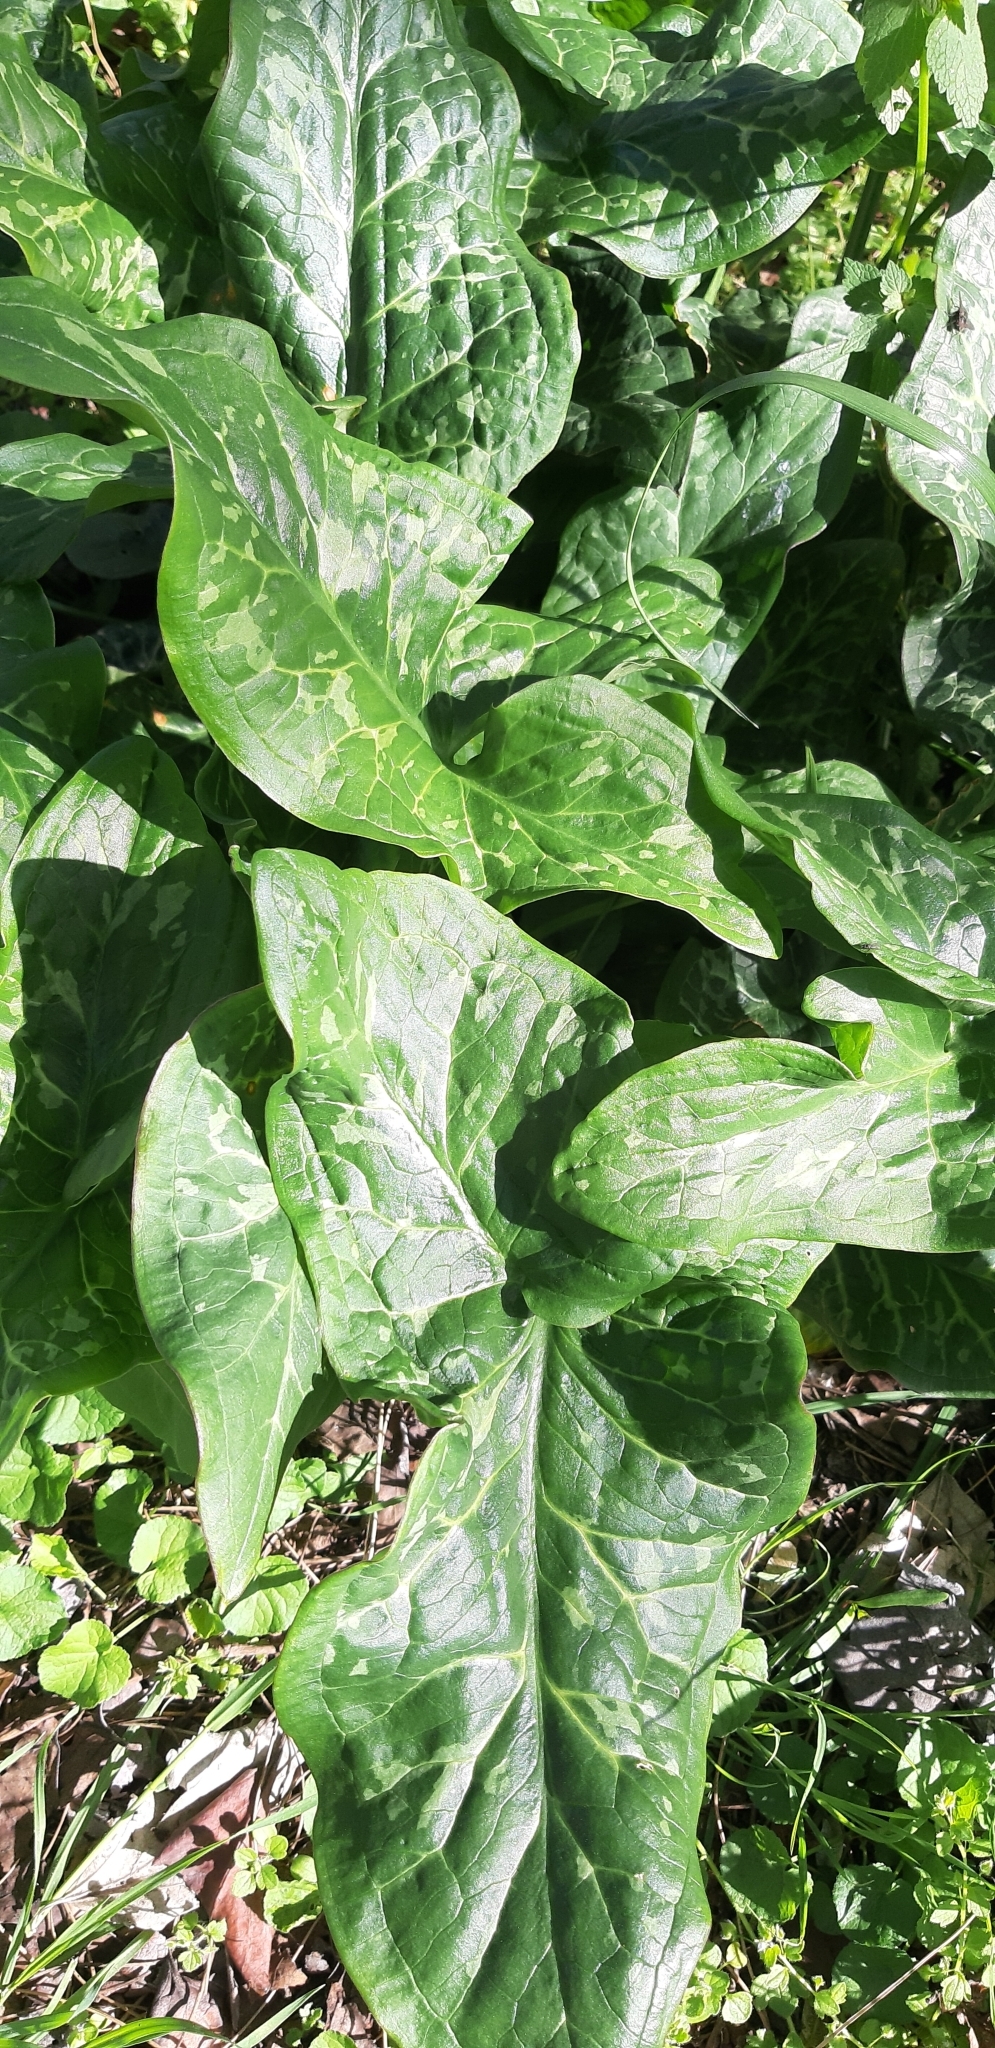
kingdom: Plantae
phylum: Tracheophyta
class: Liliopsida
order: Alismatales
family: Araceae
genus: Arum
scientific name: Arum italicum
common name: Italian lords-and-ladies
